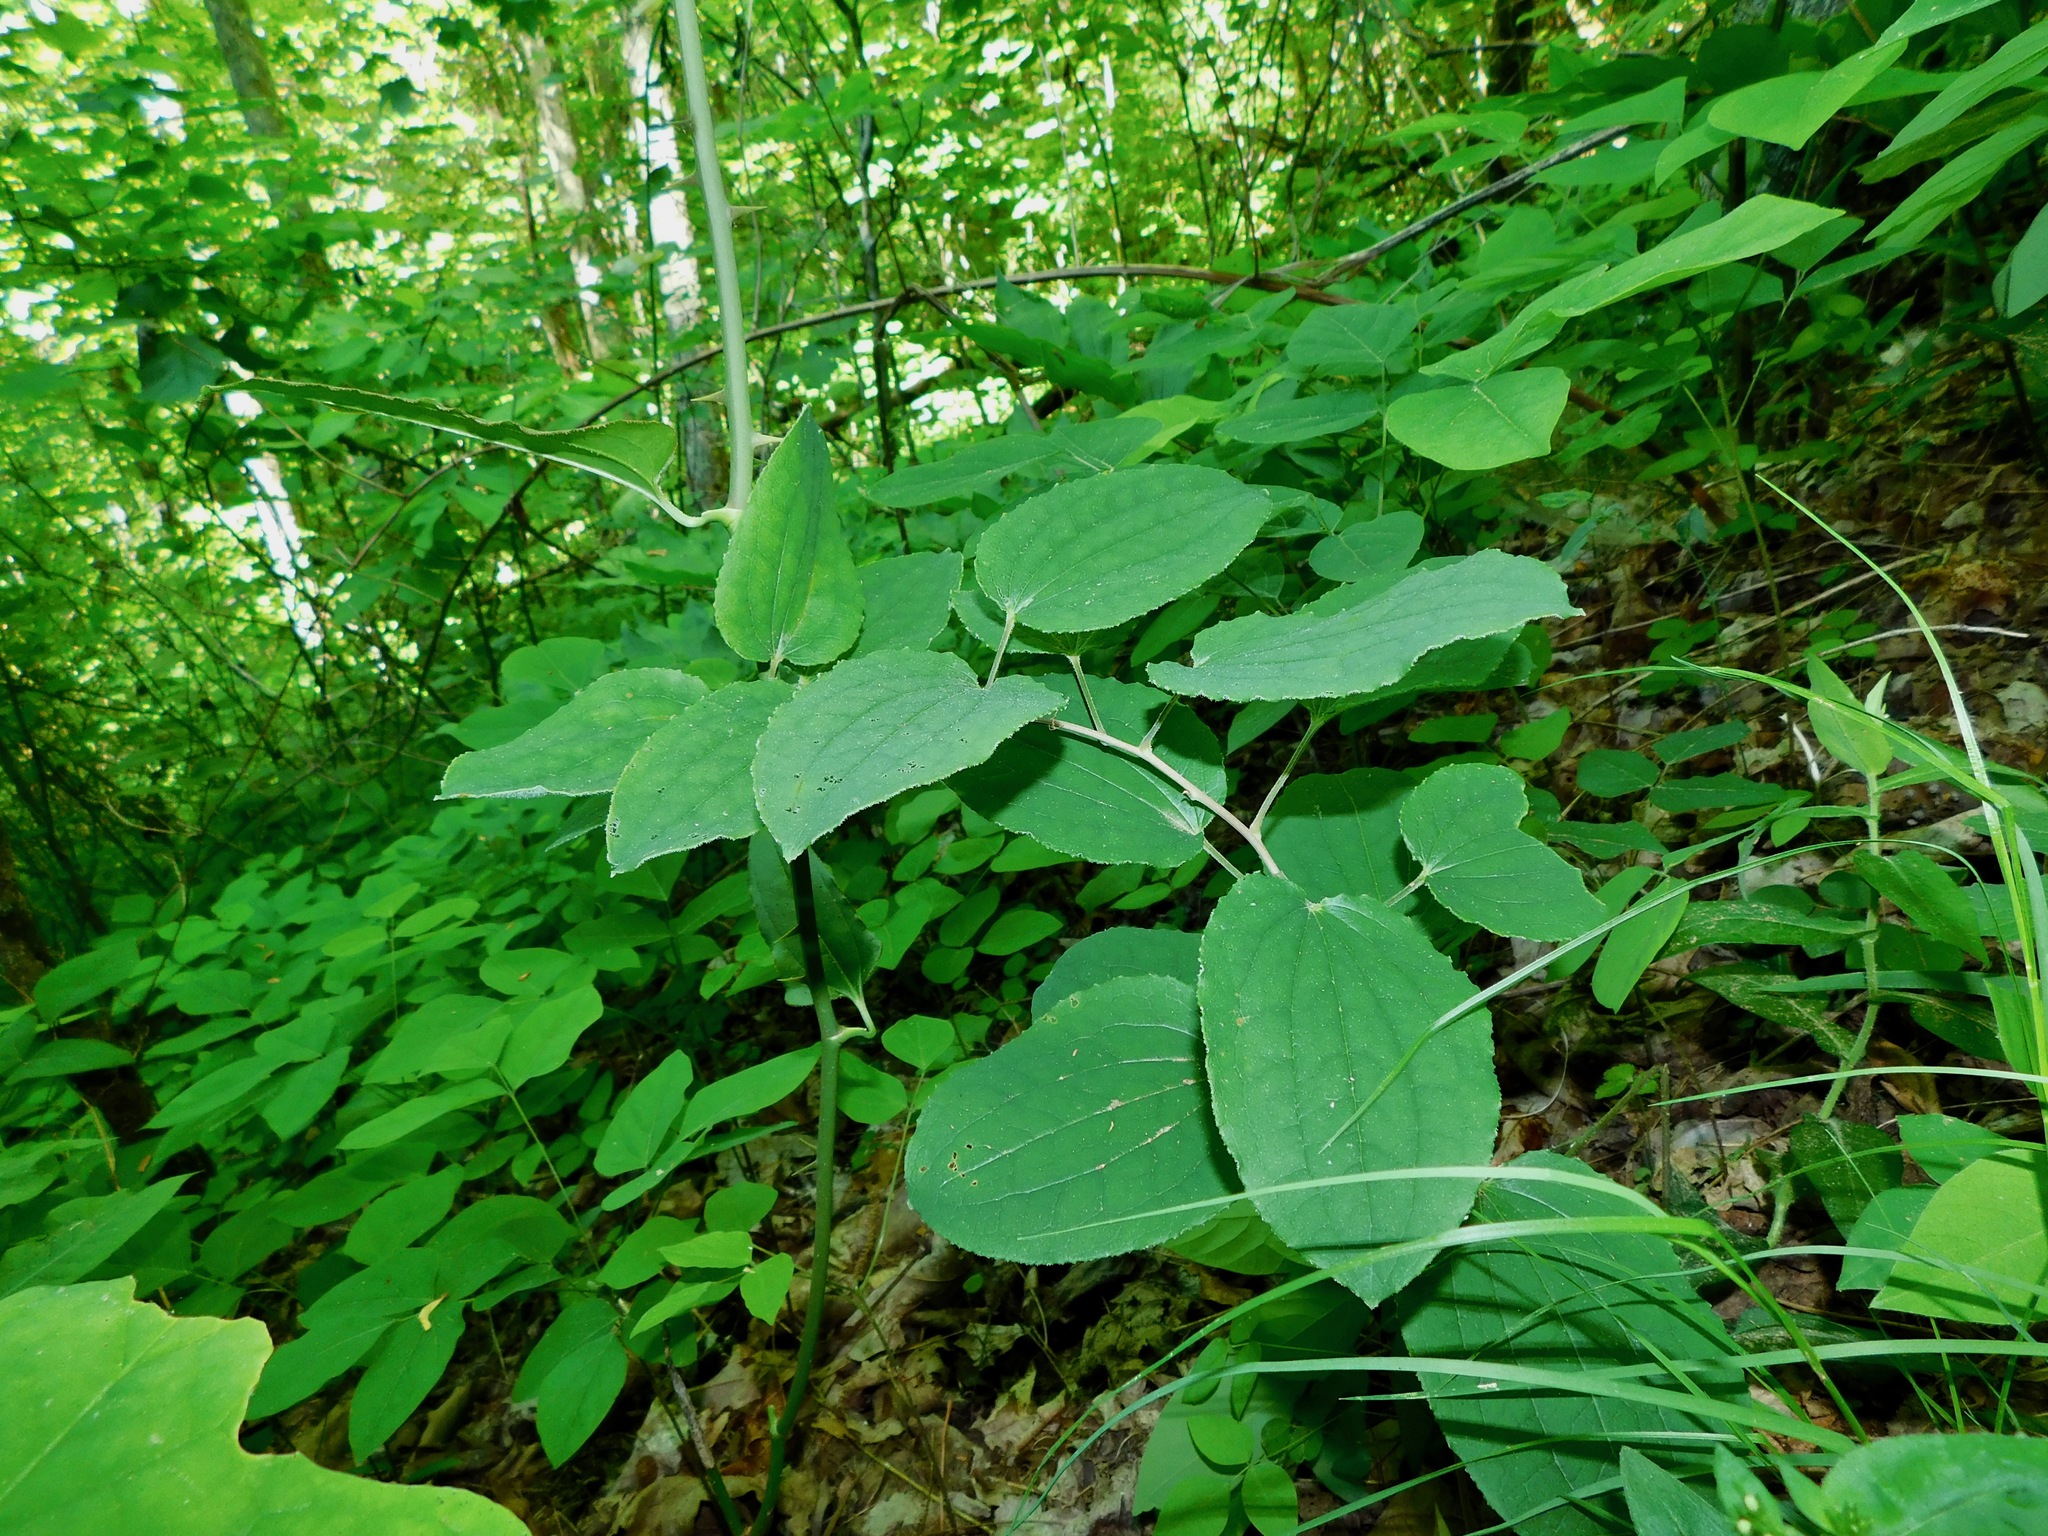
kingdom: Plantae
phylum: Tracheophyta
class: Liliopsida
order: Liliales
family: Smilacaceae
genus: Smilax
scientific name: Smilax hugeri
